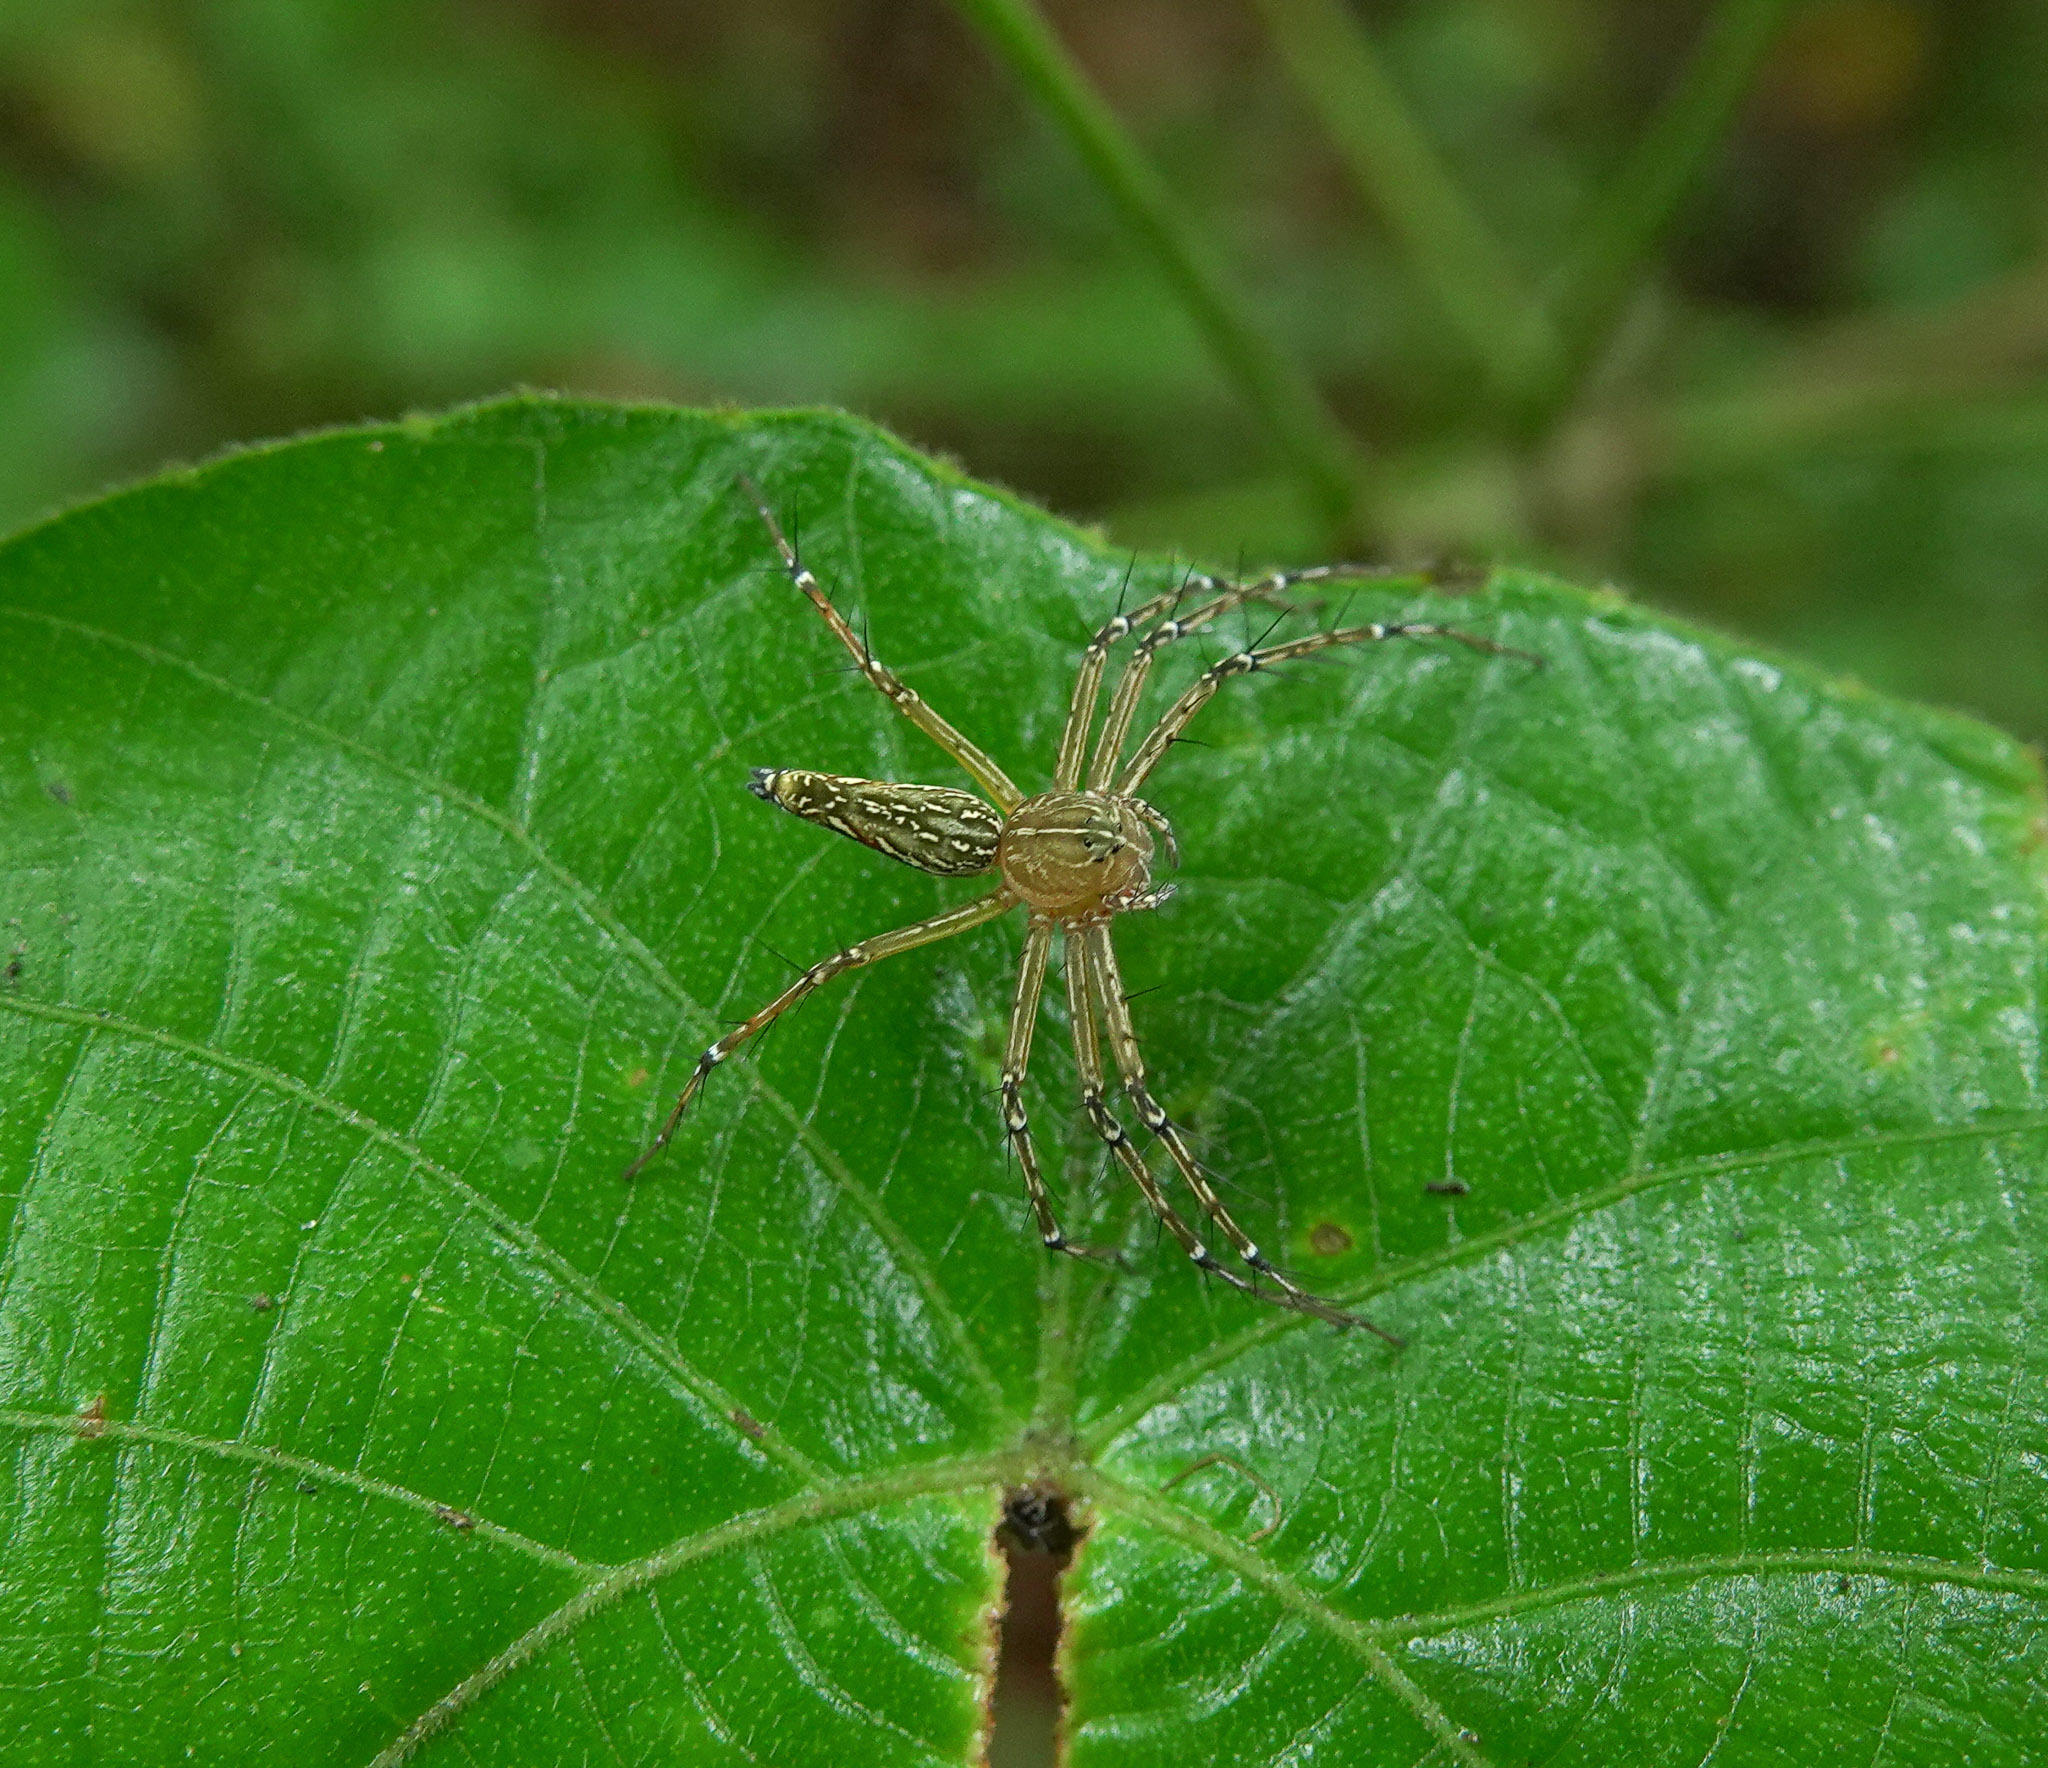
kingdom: Animalia
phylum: Arthropoda
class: Arachnida
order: Araneae
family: Oxyopidae
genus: Hamadruas
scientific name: Hamadruas sikkimensis
